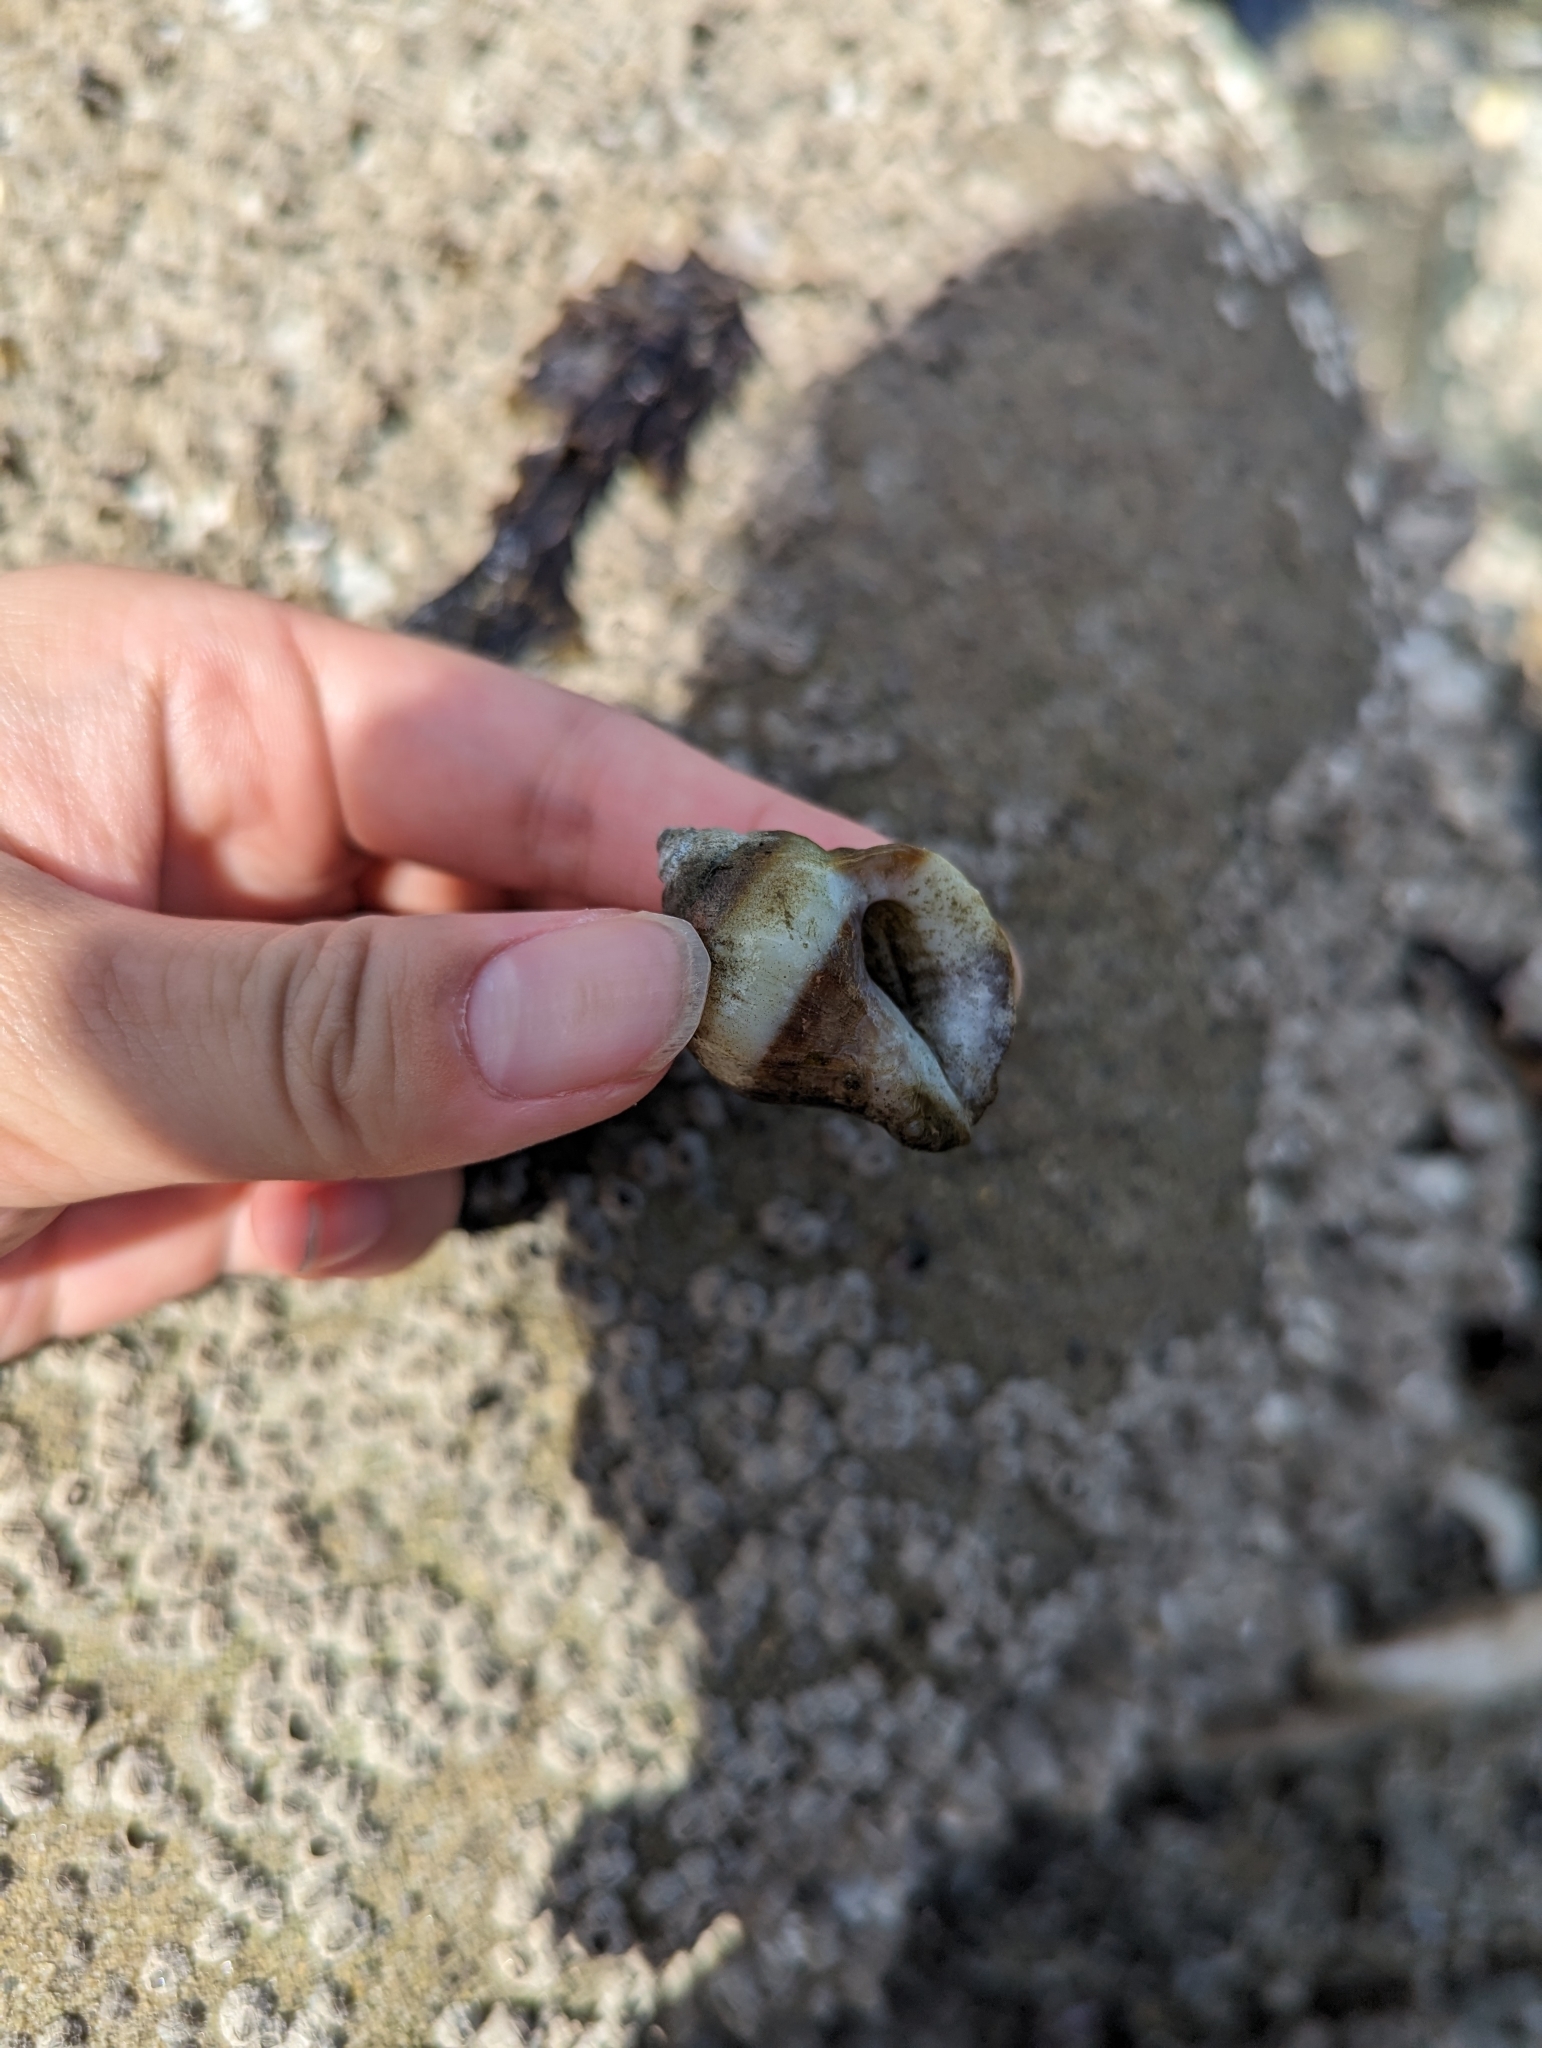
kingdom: Animalia
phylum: Mollusca
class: Gastropoda
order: Neogastropoda
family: Muricidae
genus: Nucella
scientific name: Nucella lamellosa
